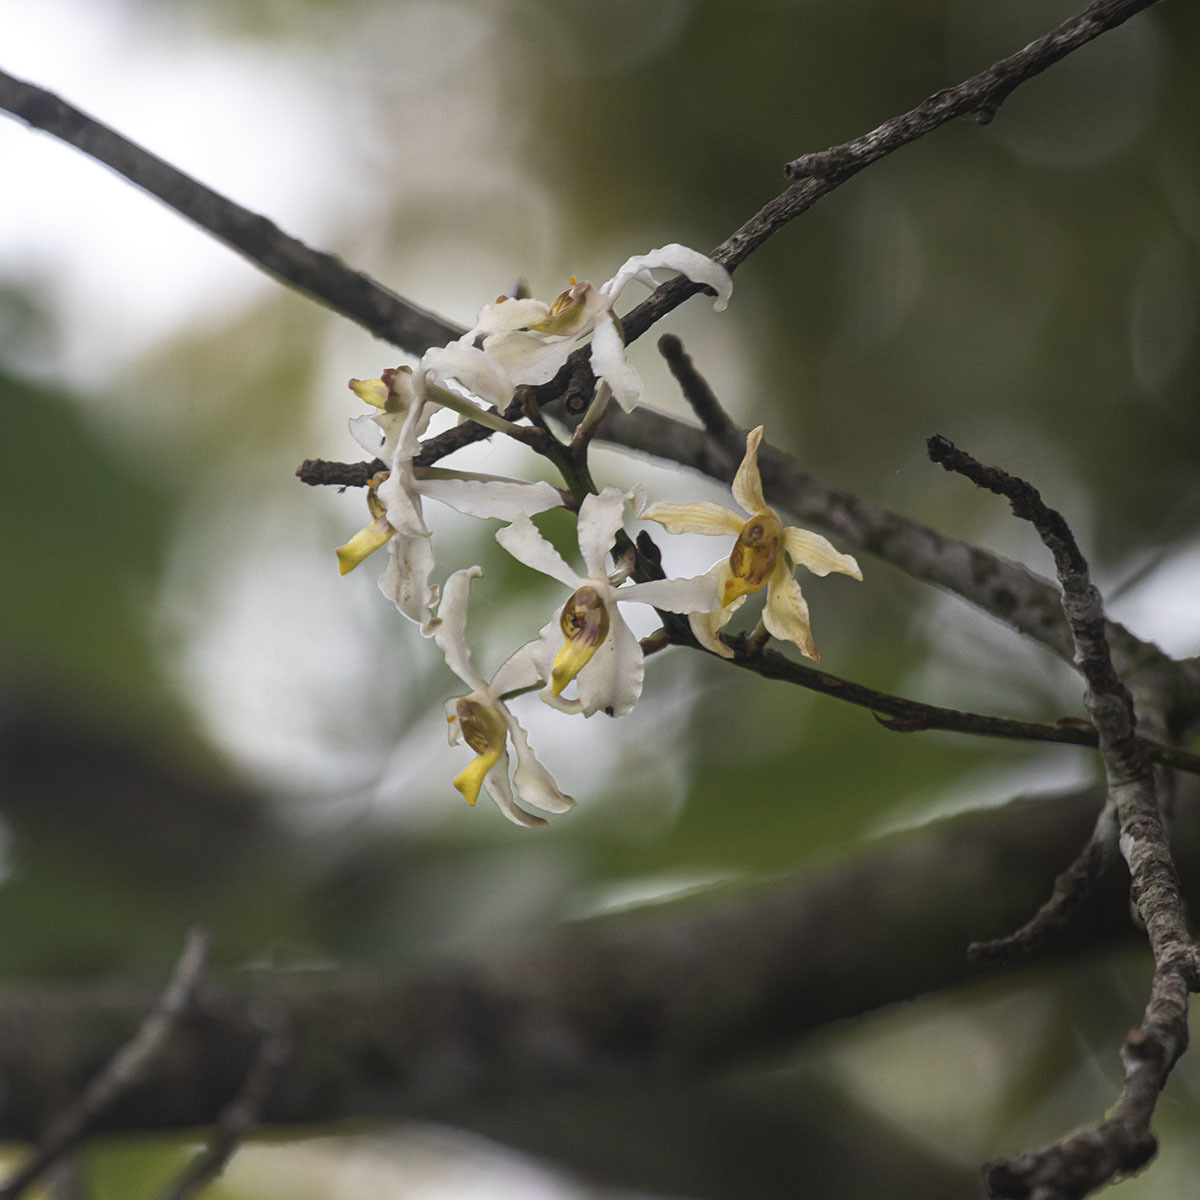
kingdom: Plantae
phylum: Tracheophyta
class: Liliopsida
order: Asparagales
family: Orchidaceae
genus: Cymbilabia
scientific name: Cymbilabia undulata
